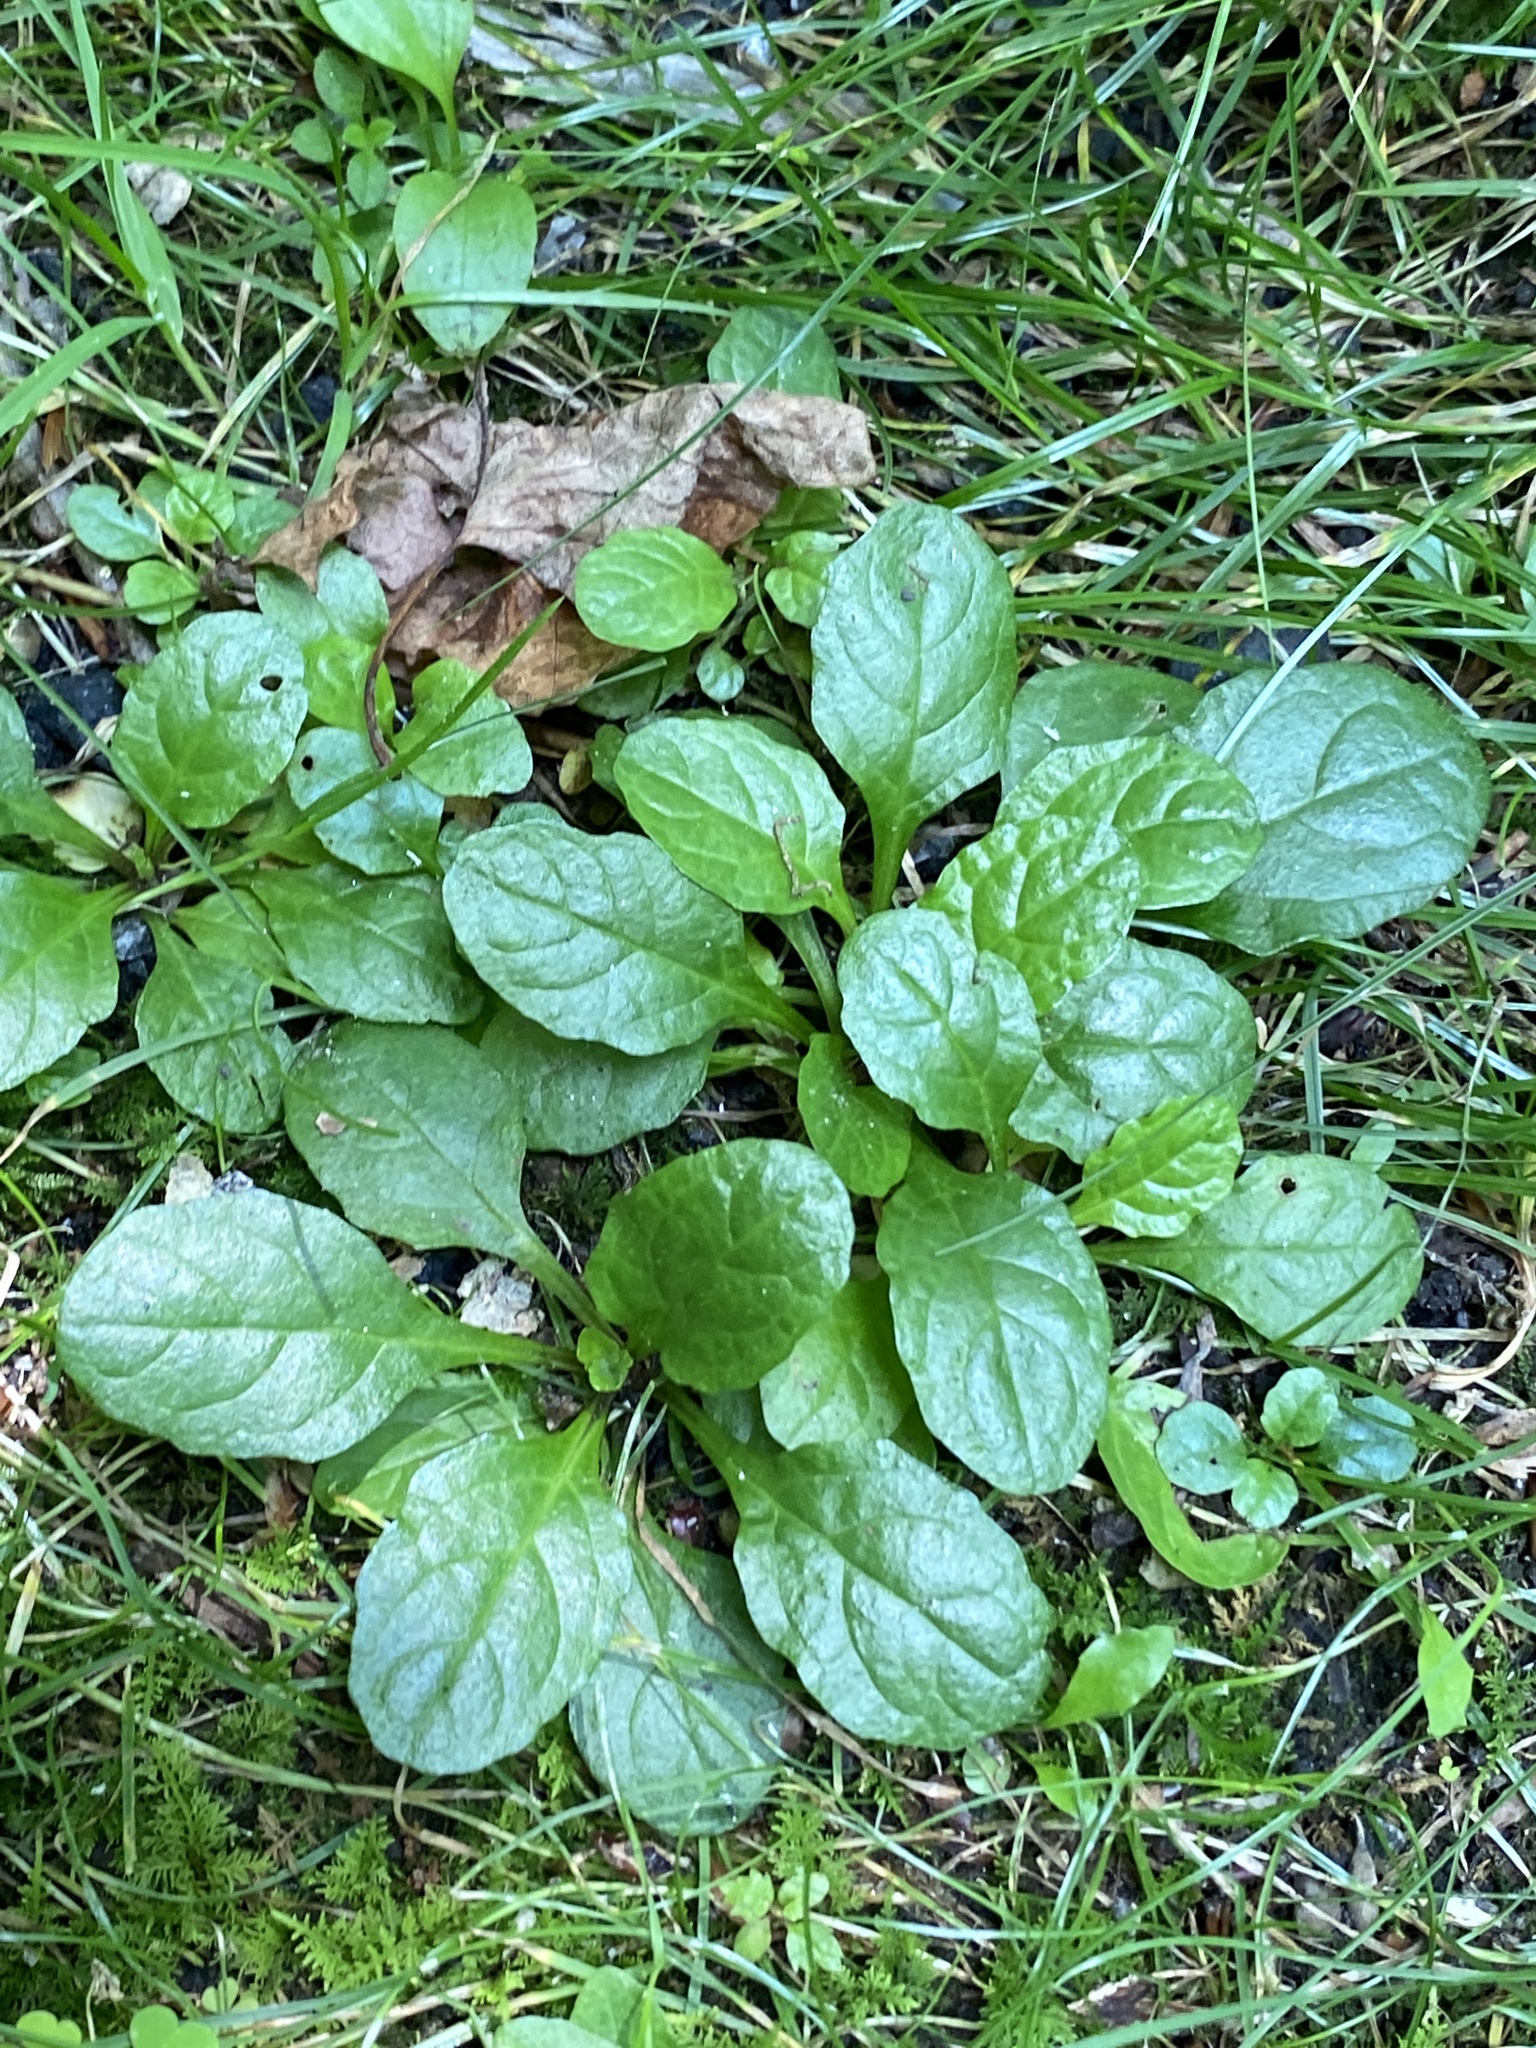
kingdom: Plantae
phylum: Tracheophyta
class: Magnoliopsida
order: Lamiales
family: Lamiaceae
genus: Ajuga
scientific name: Ajuga reptans
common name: Bugle
